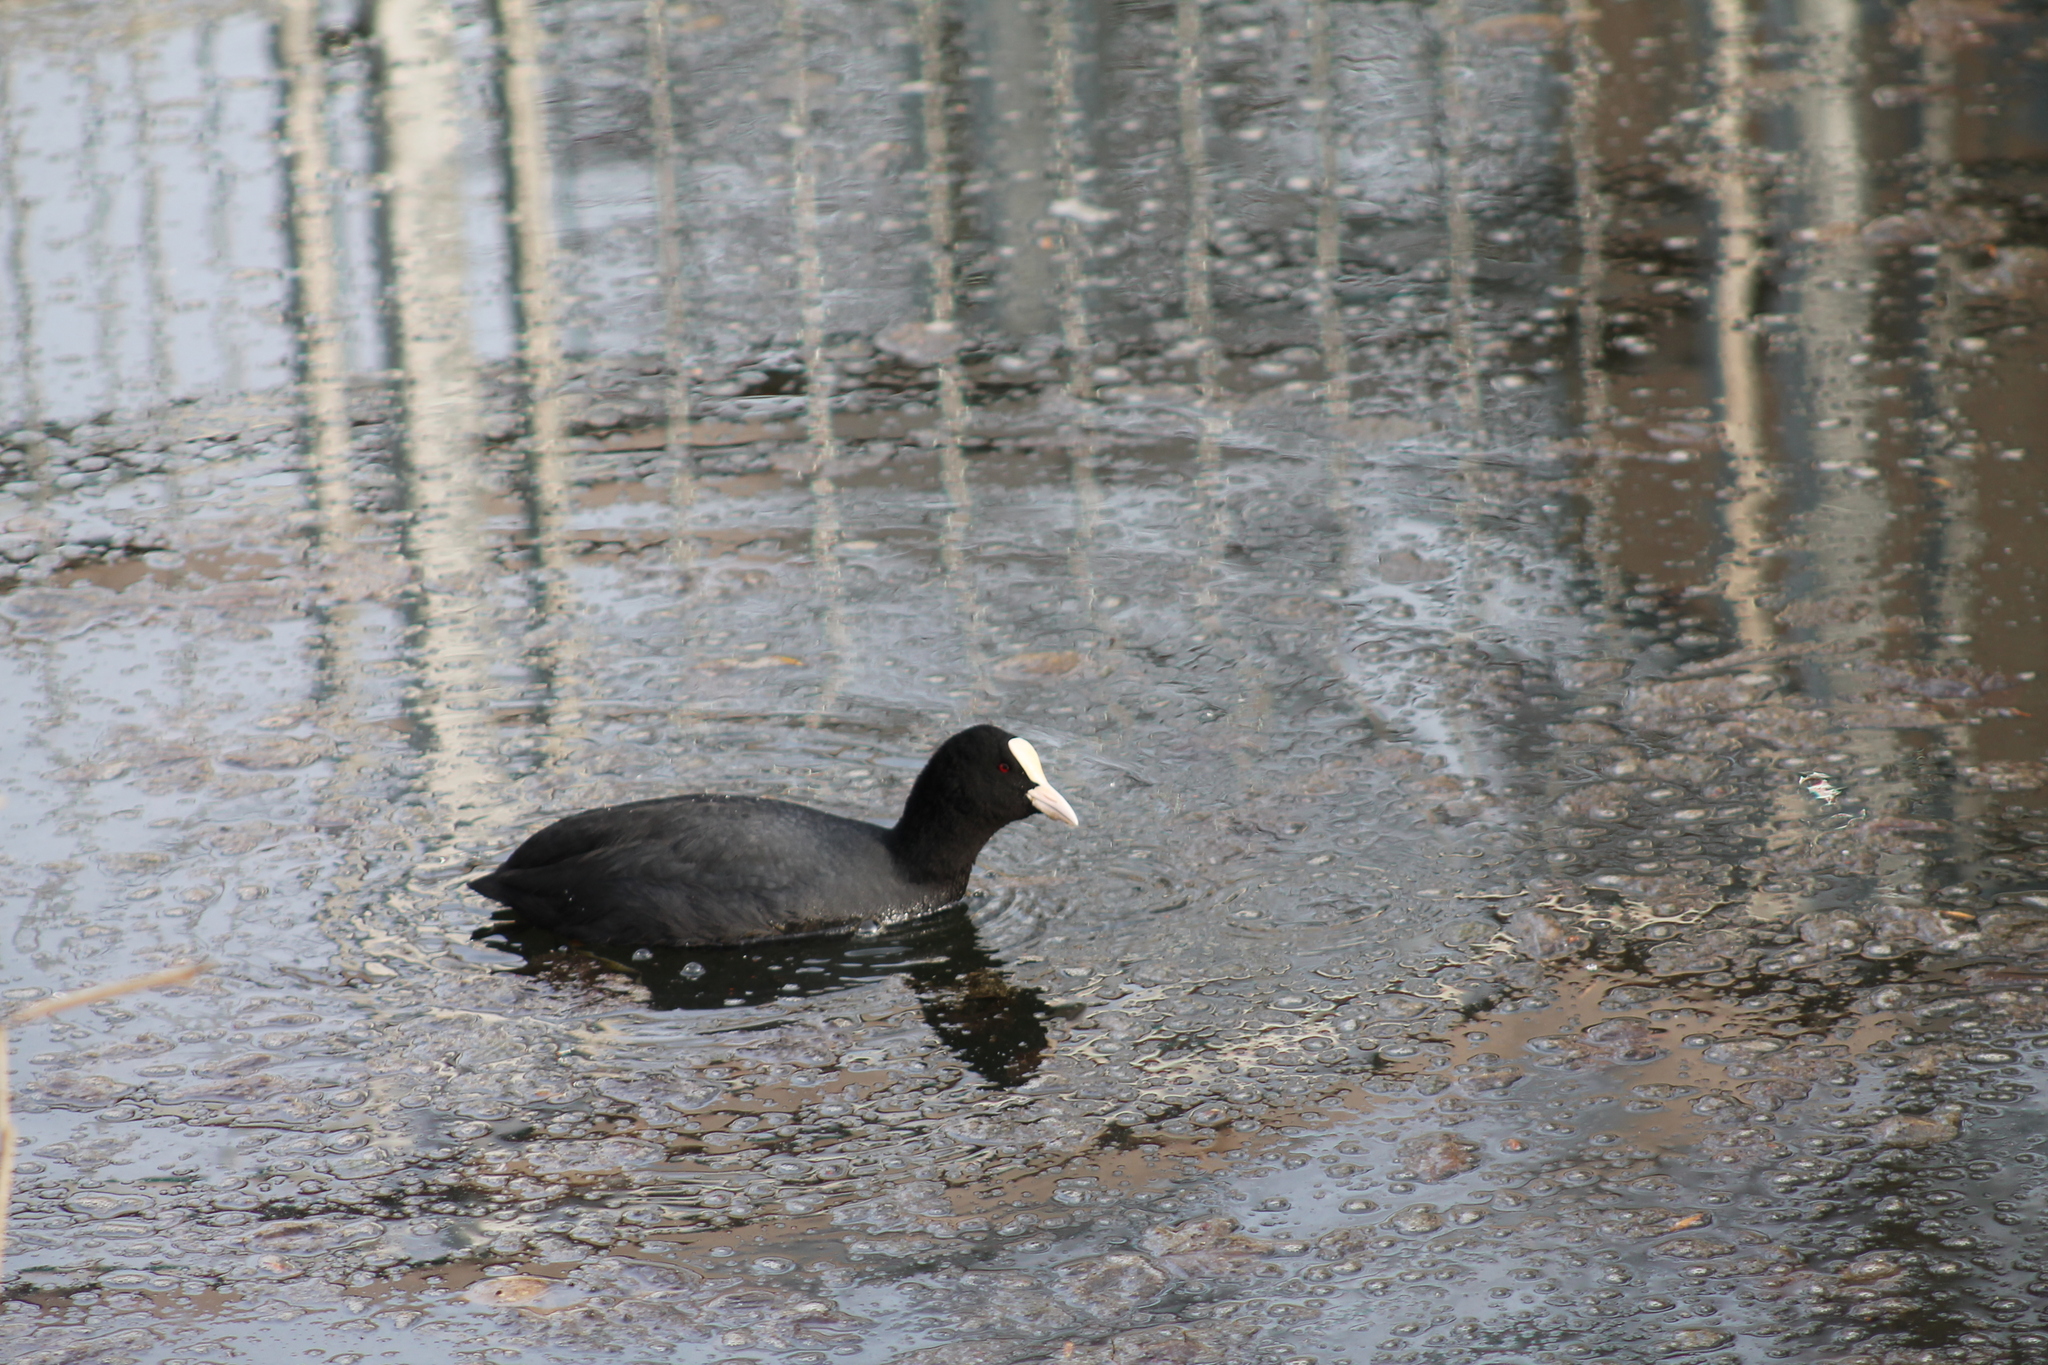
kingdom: Animalia
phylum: Chordata
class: Aves
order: Gruiformes
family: Rallidae
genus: Fulica
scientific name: Fulica atra
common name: Eurasian coot
